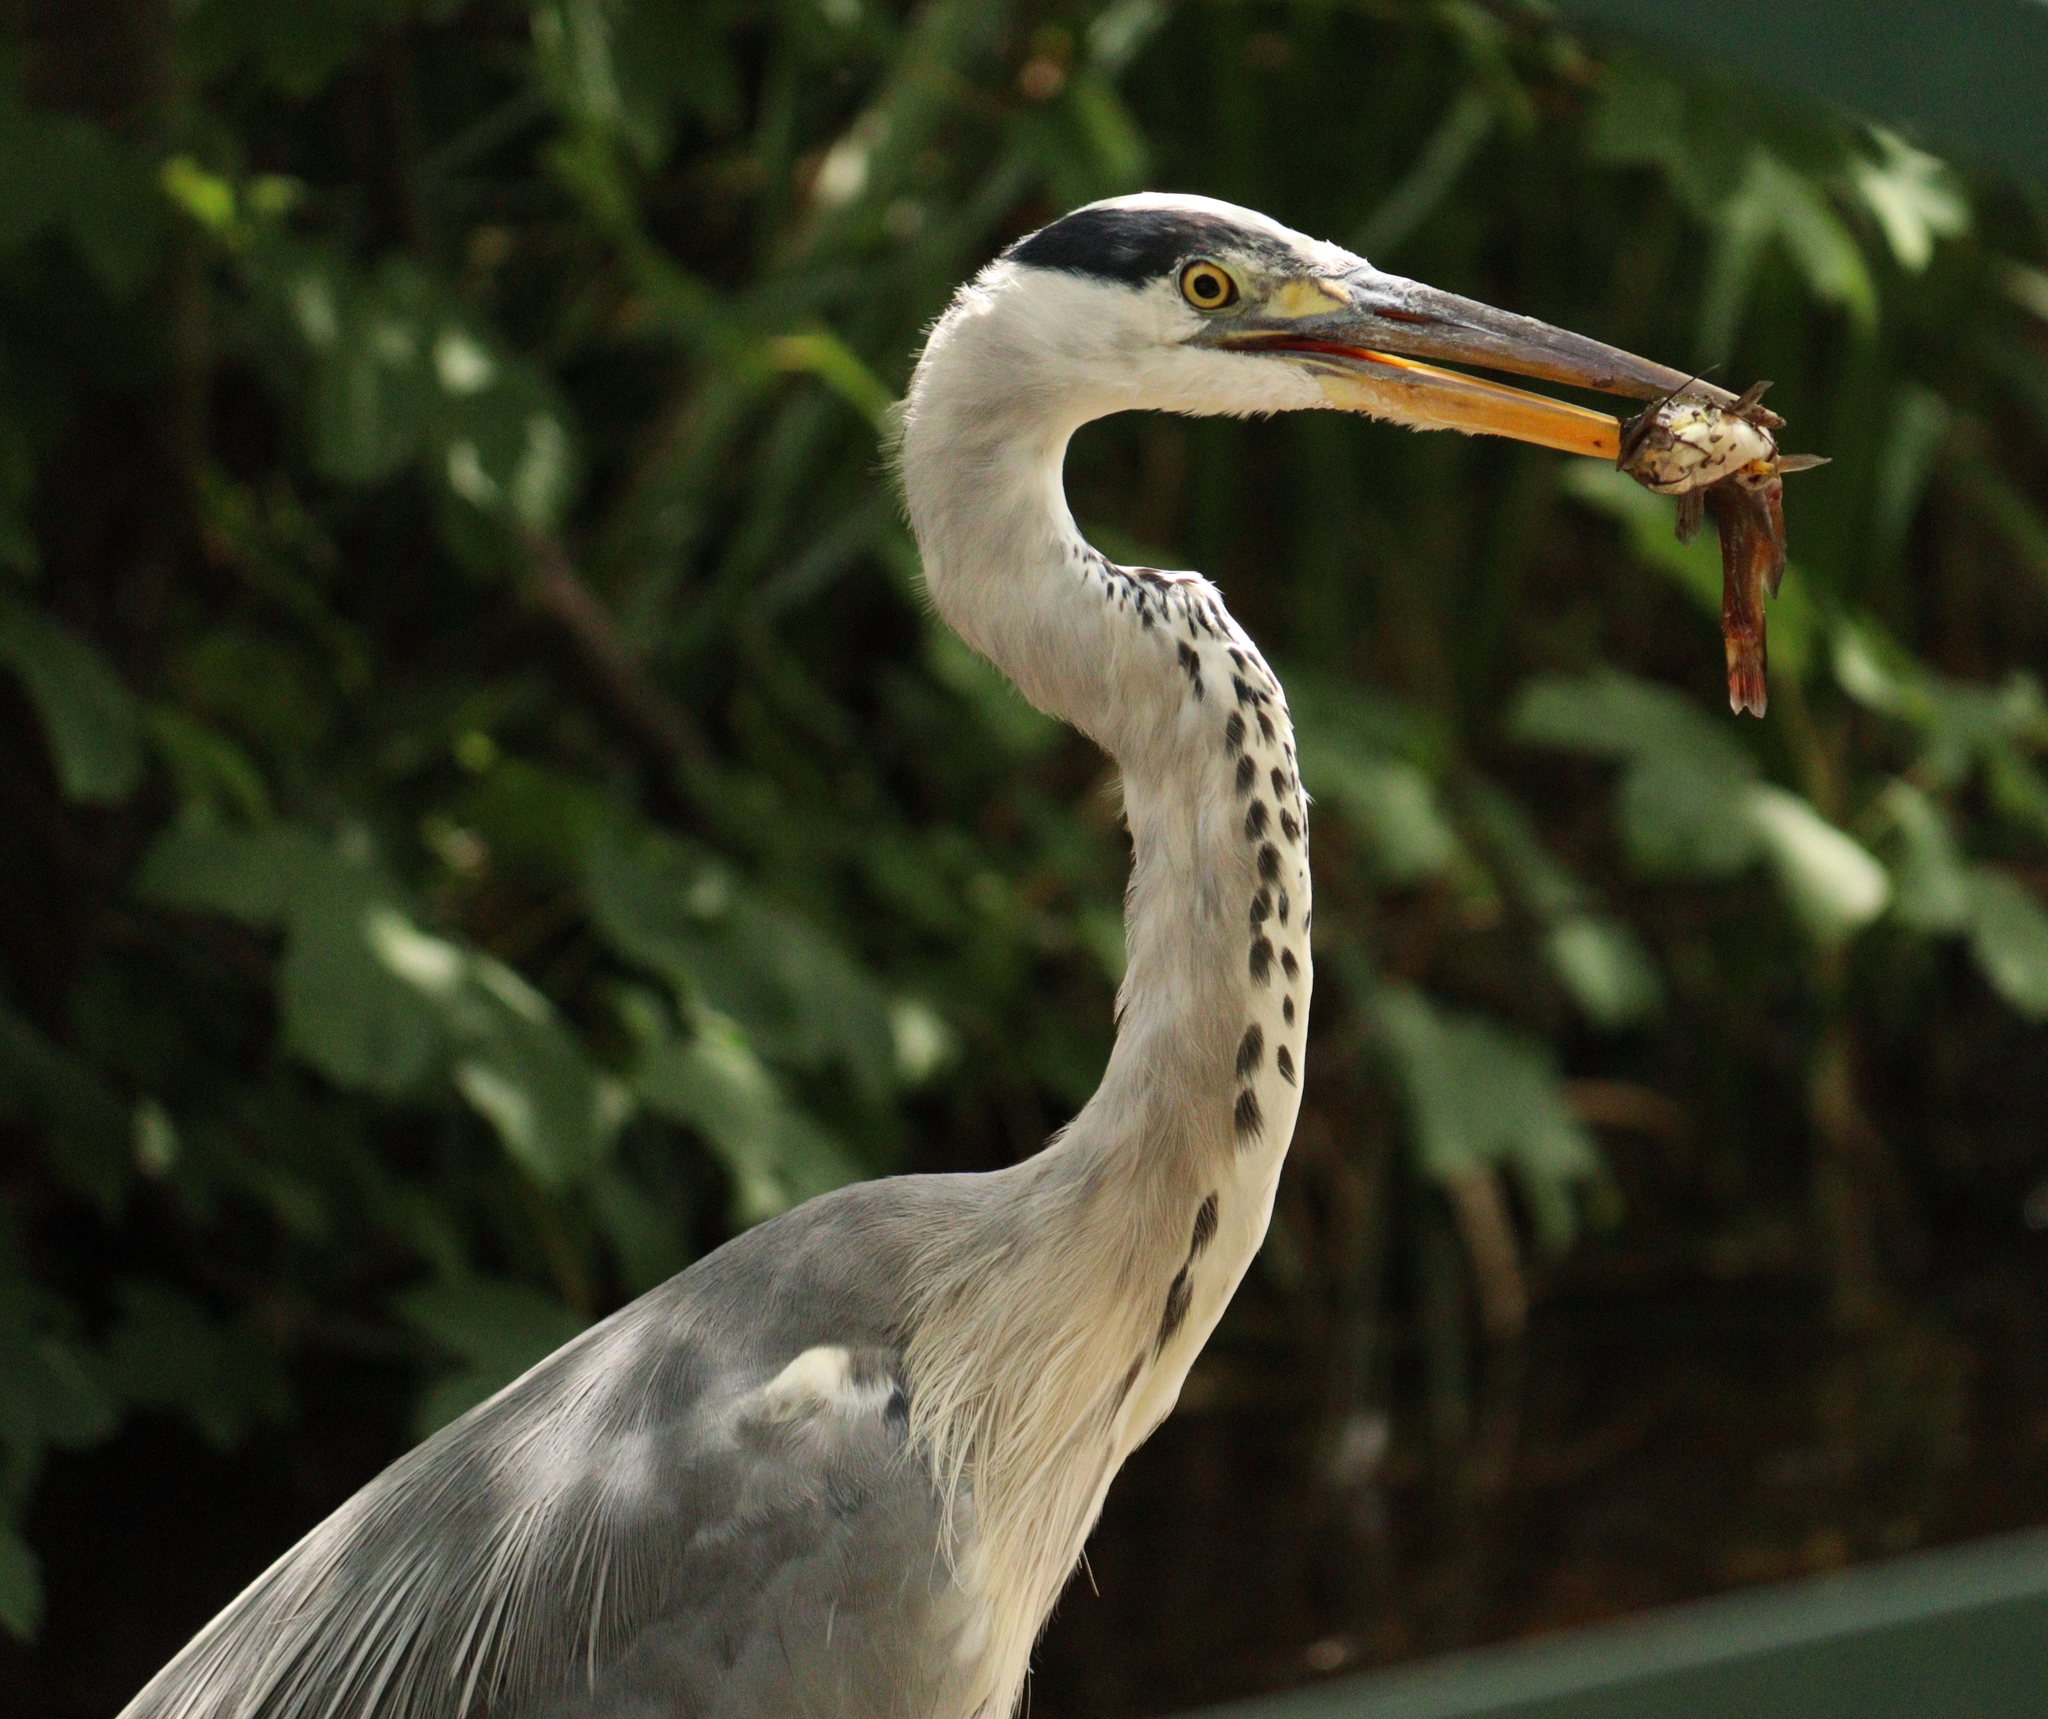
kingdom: Animalia
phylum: Chordata
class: Aves
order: Pelecaniformes
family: Ardeidae
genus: Ardea
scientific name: Ardea cinerea
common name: Grey heron
